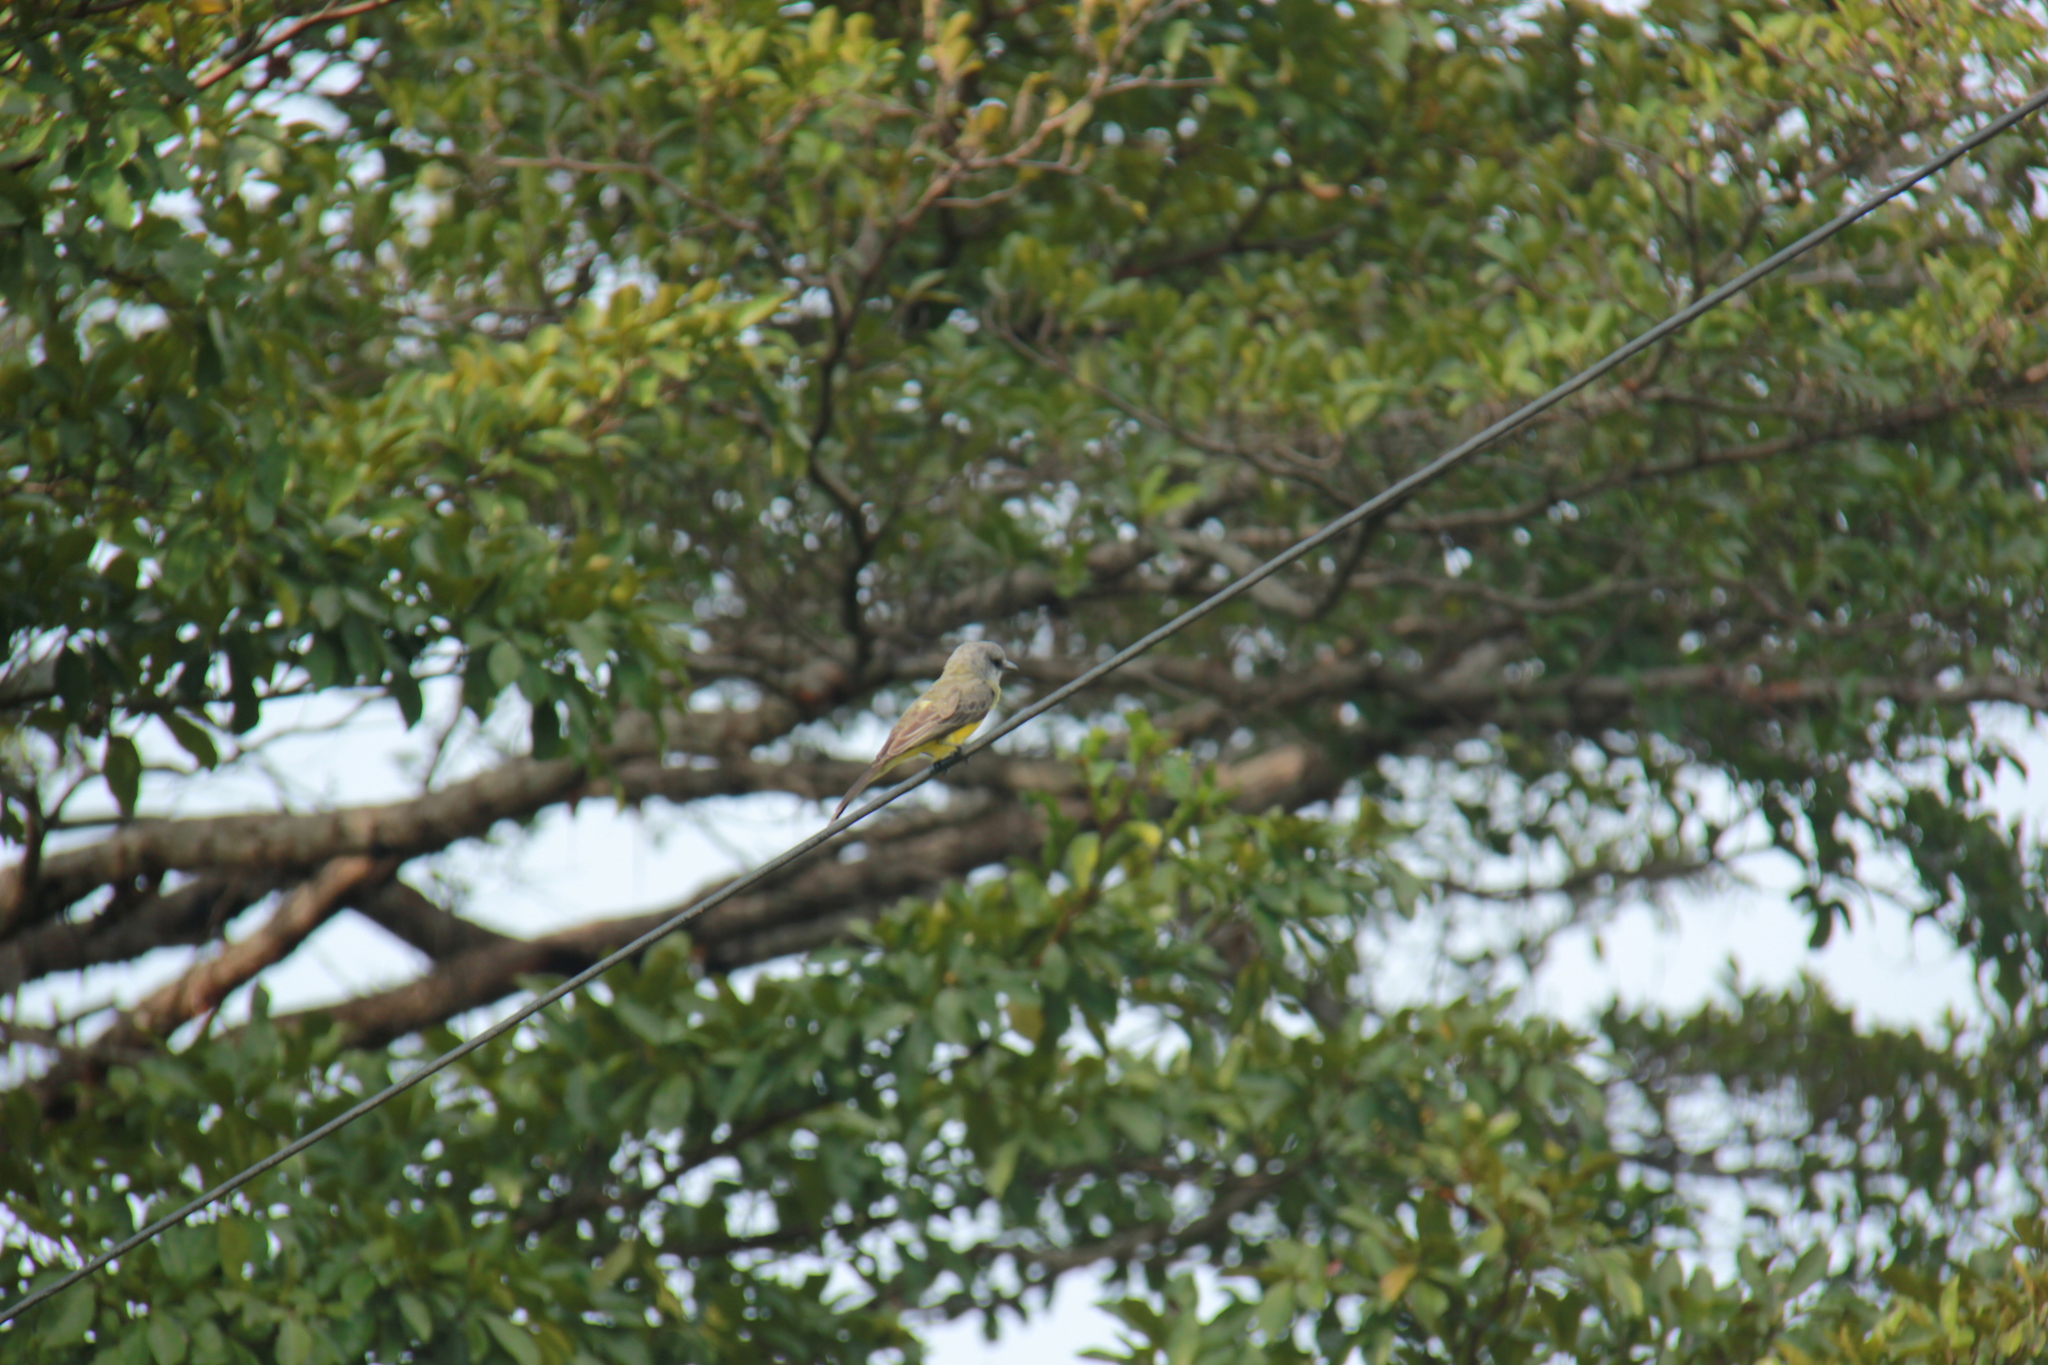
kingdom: Animalia
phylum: Chordata
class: Aves
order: Passeriformes
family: Tyrannidae
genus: Tyrannus
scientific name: Tyrannus melancholicus
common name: Tropical kingbird
